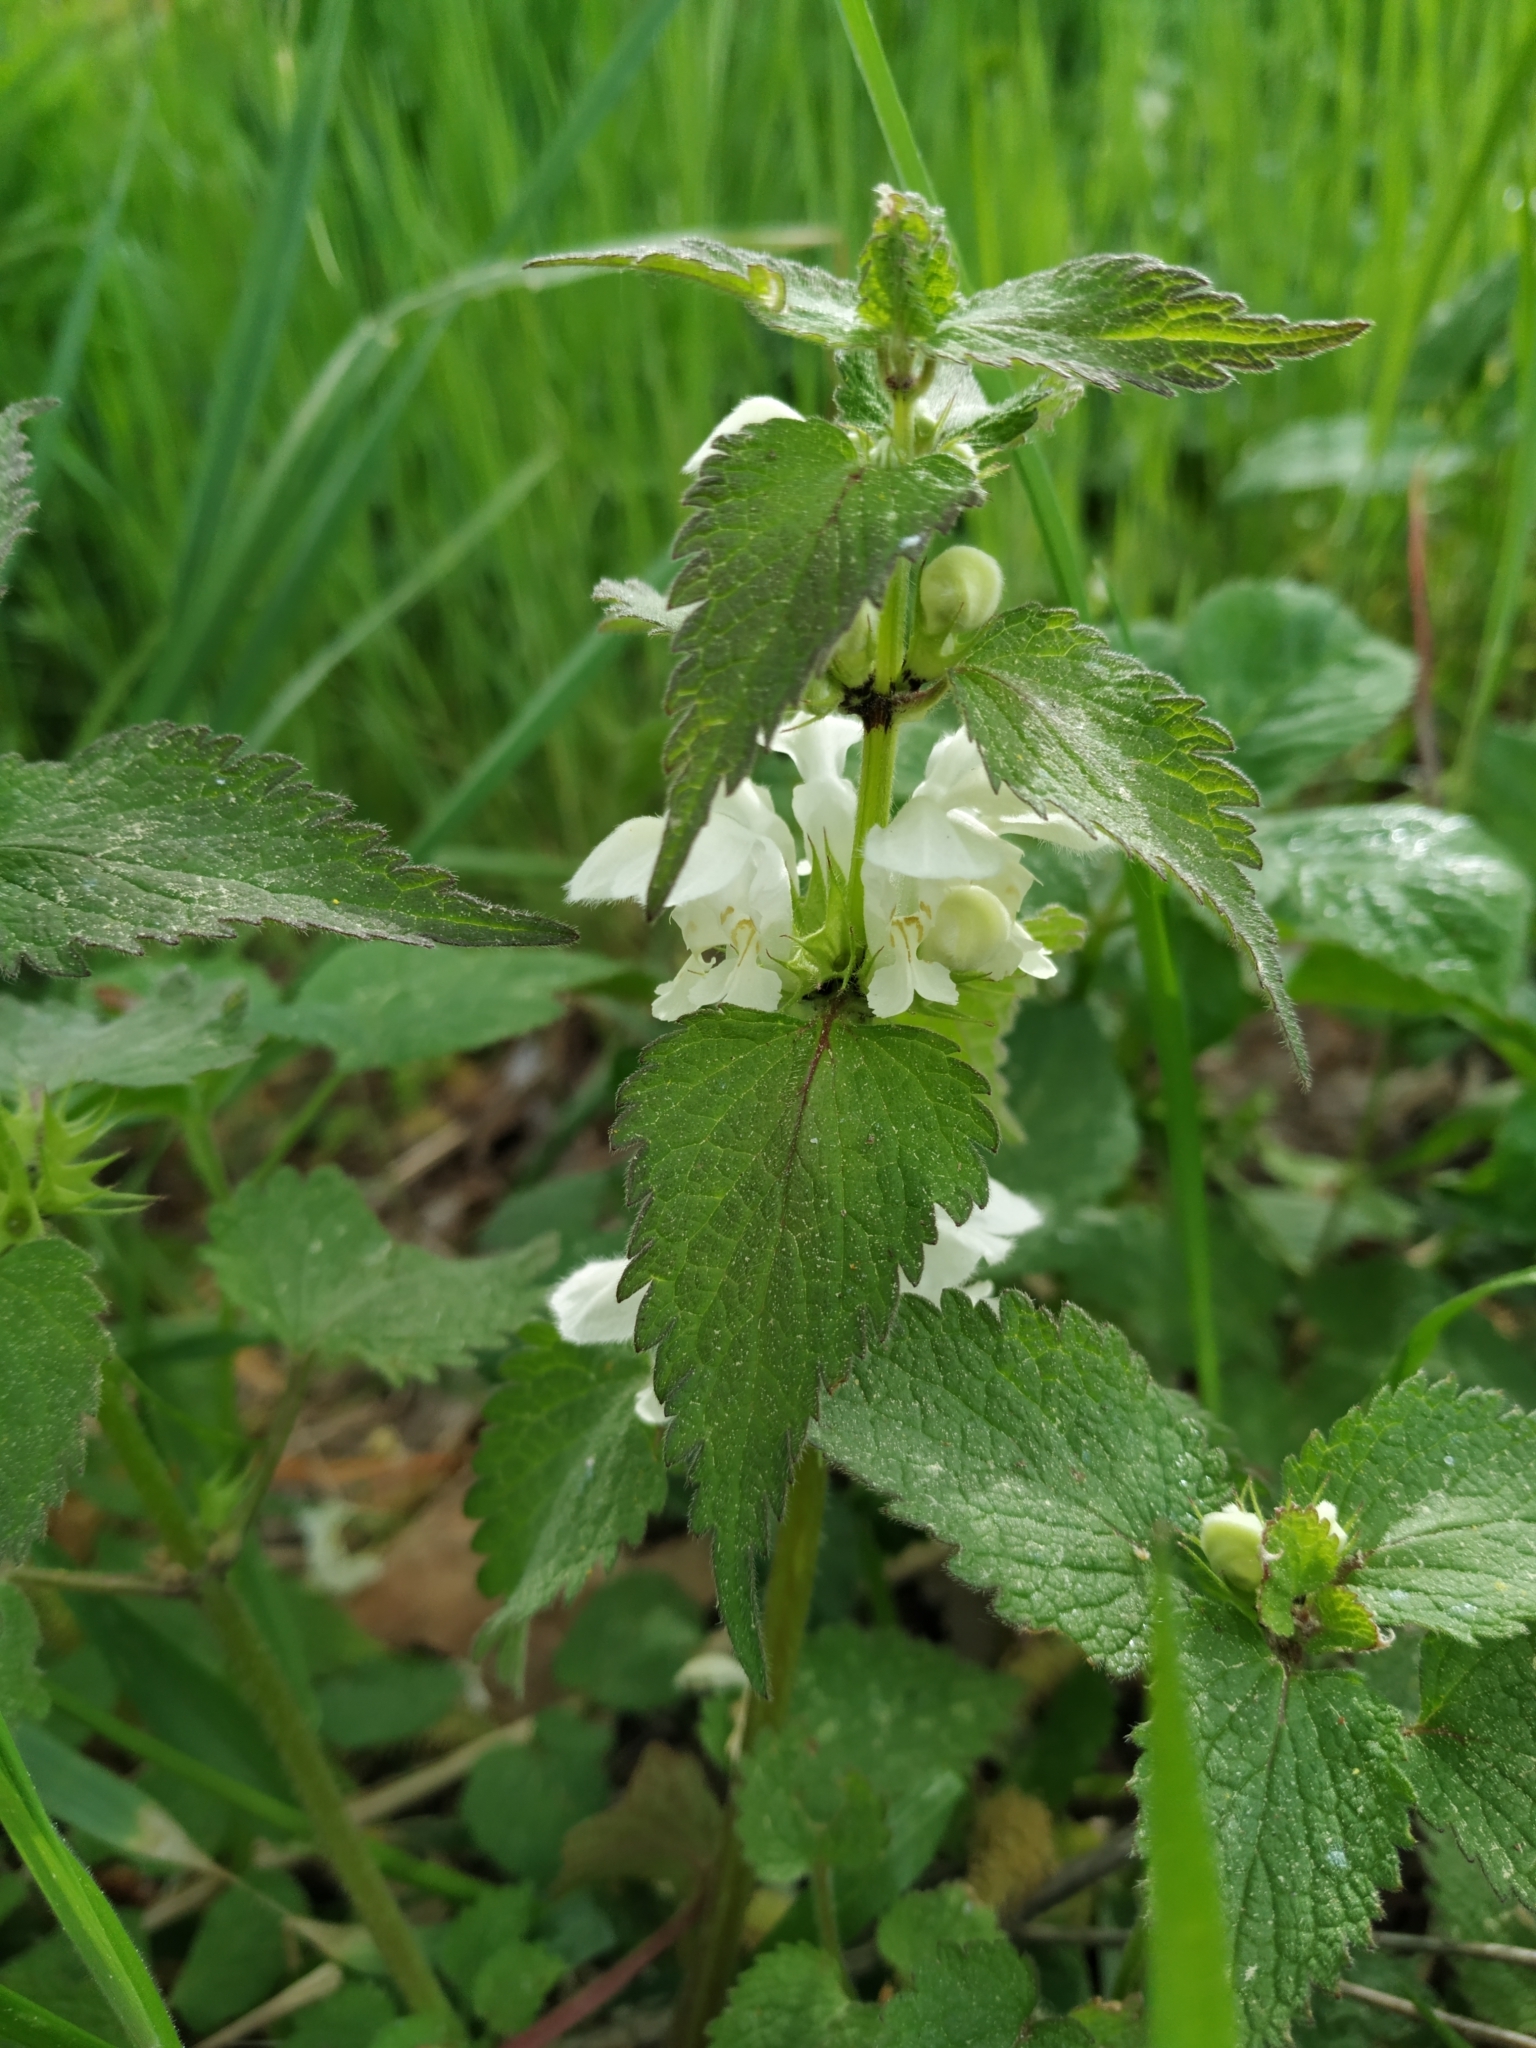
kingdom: Plantae
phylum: Tracheophyta
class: Magnoliopsida
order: Lamiales
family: Lamiaceae
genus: Lamium
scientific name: Lamium album
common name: White dead-nettle
